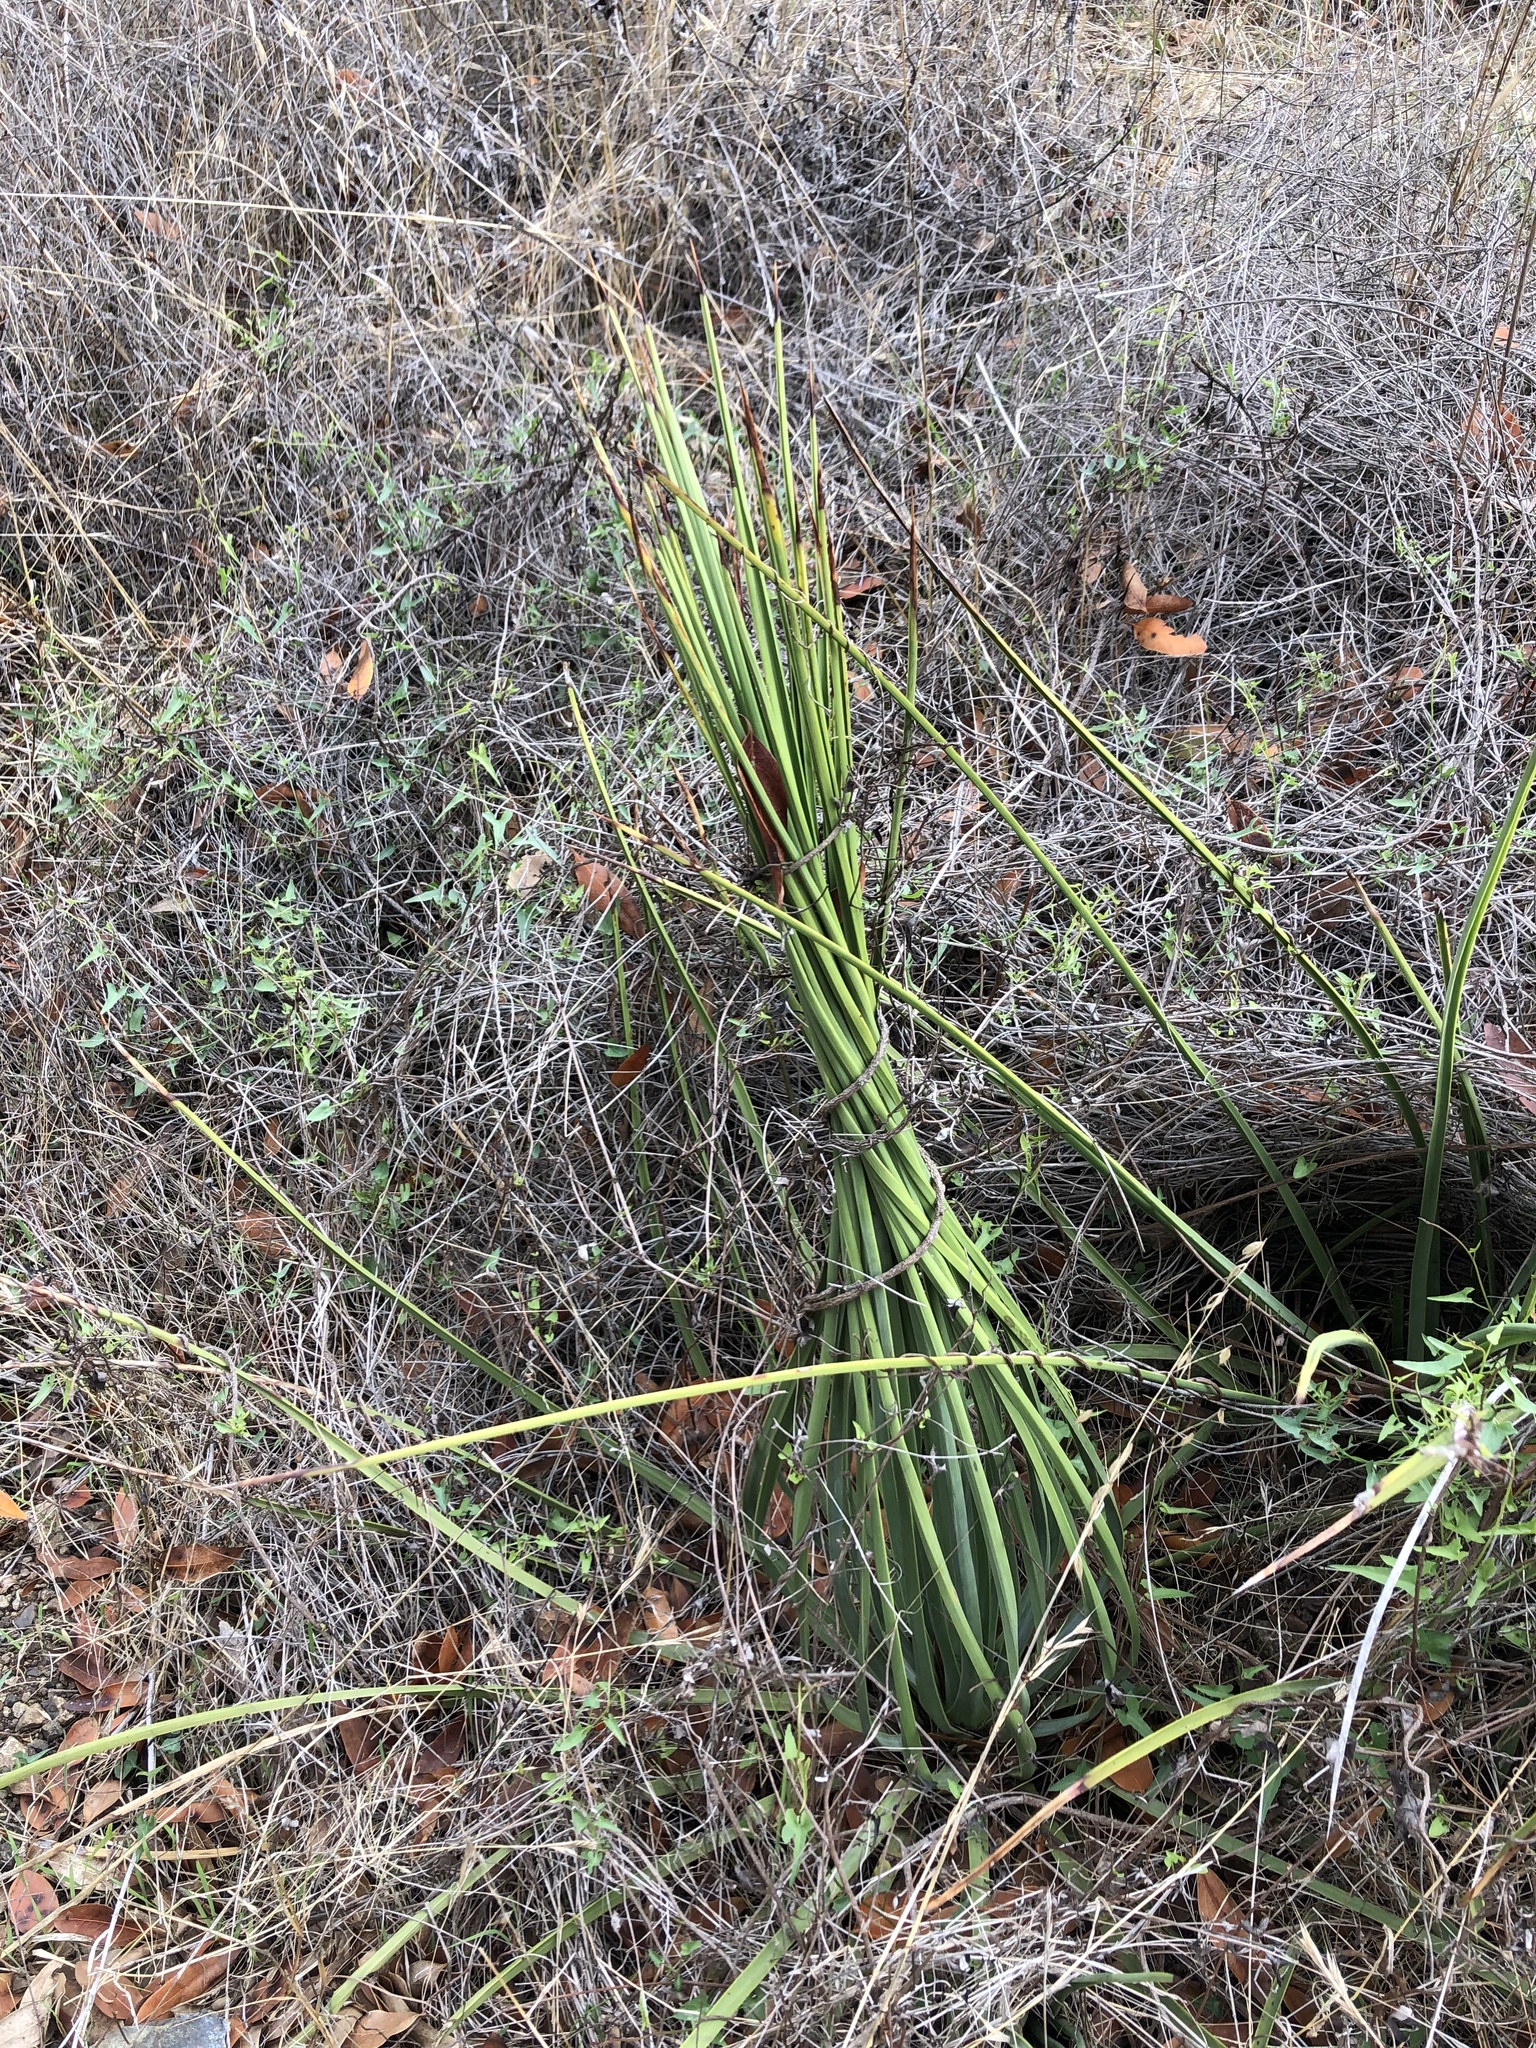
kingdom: Plantae
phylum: Tracheophyta
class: Liliopsida
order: Asparagales
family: Asparagaceae
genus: Hesperoyucca
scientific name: Hesperoyucca whipplei
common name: Our lord's-candle
